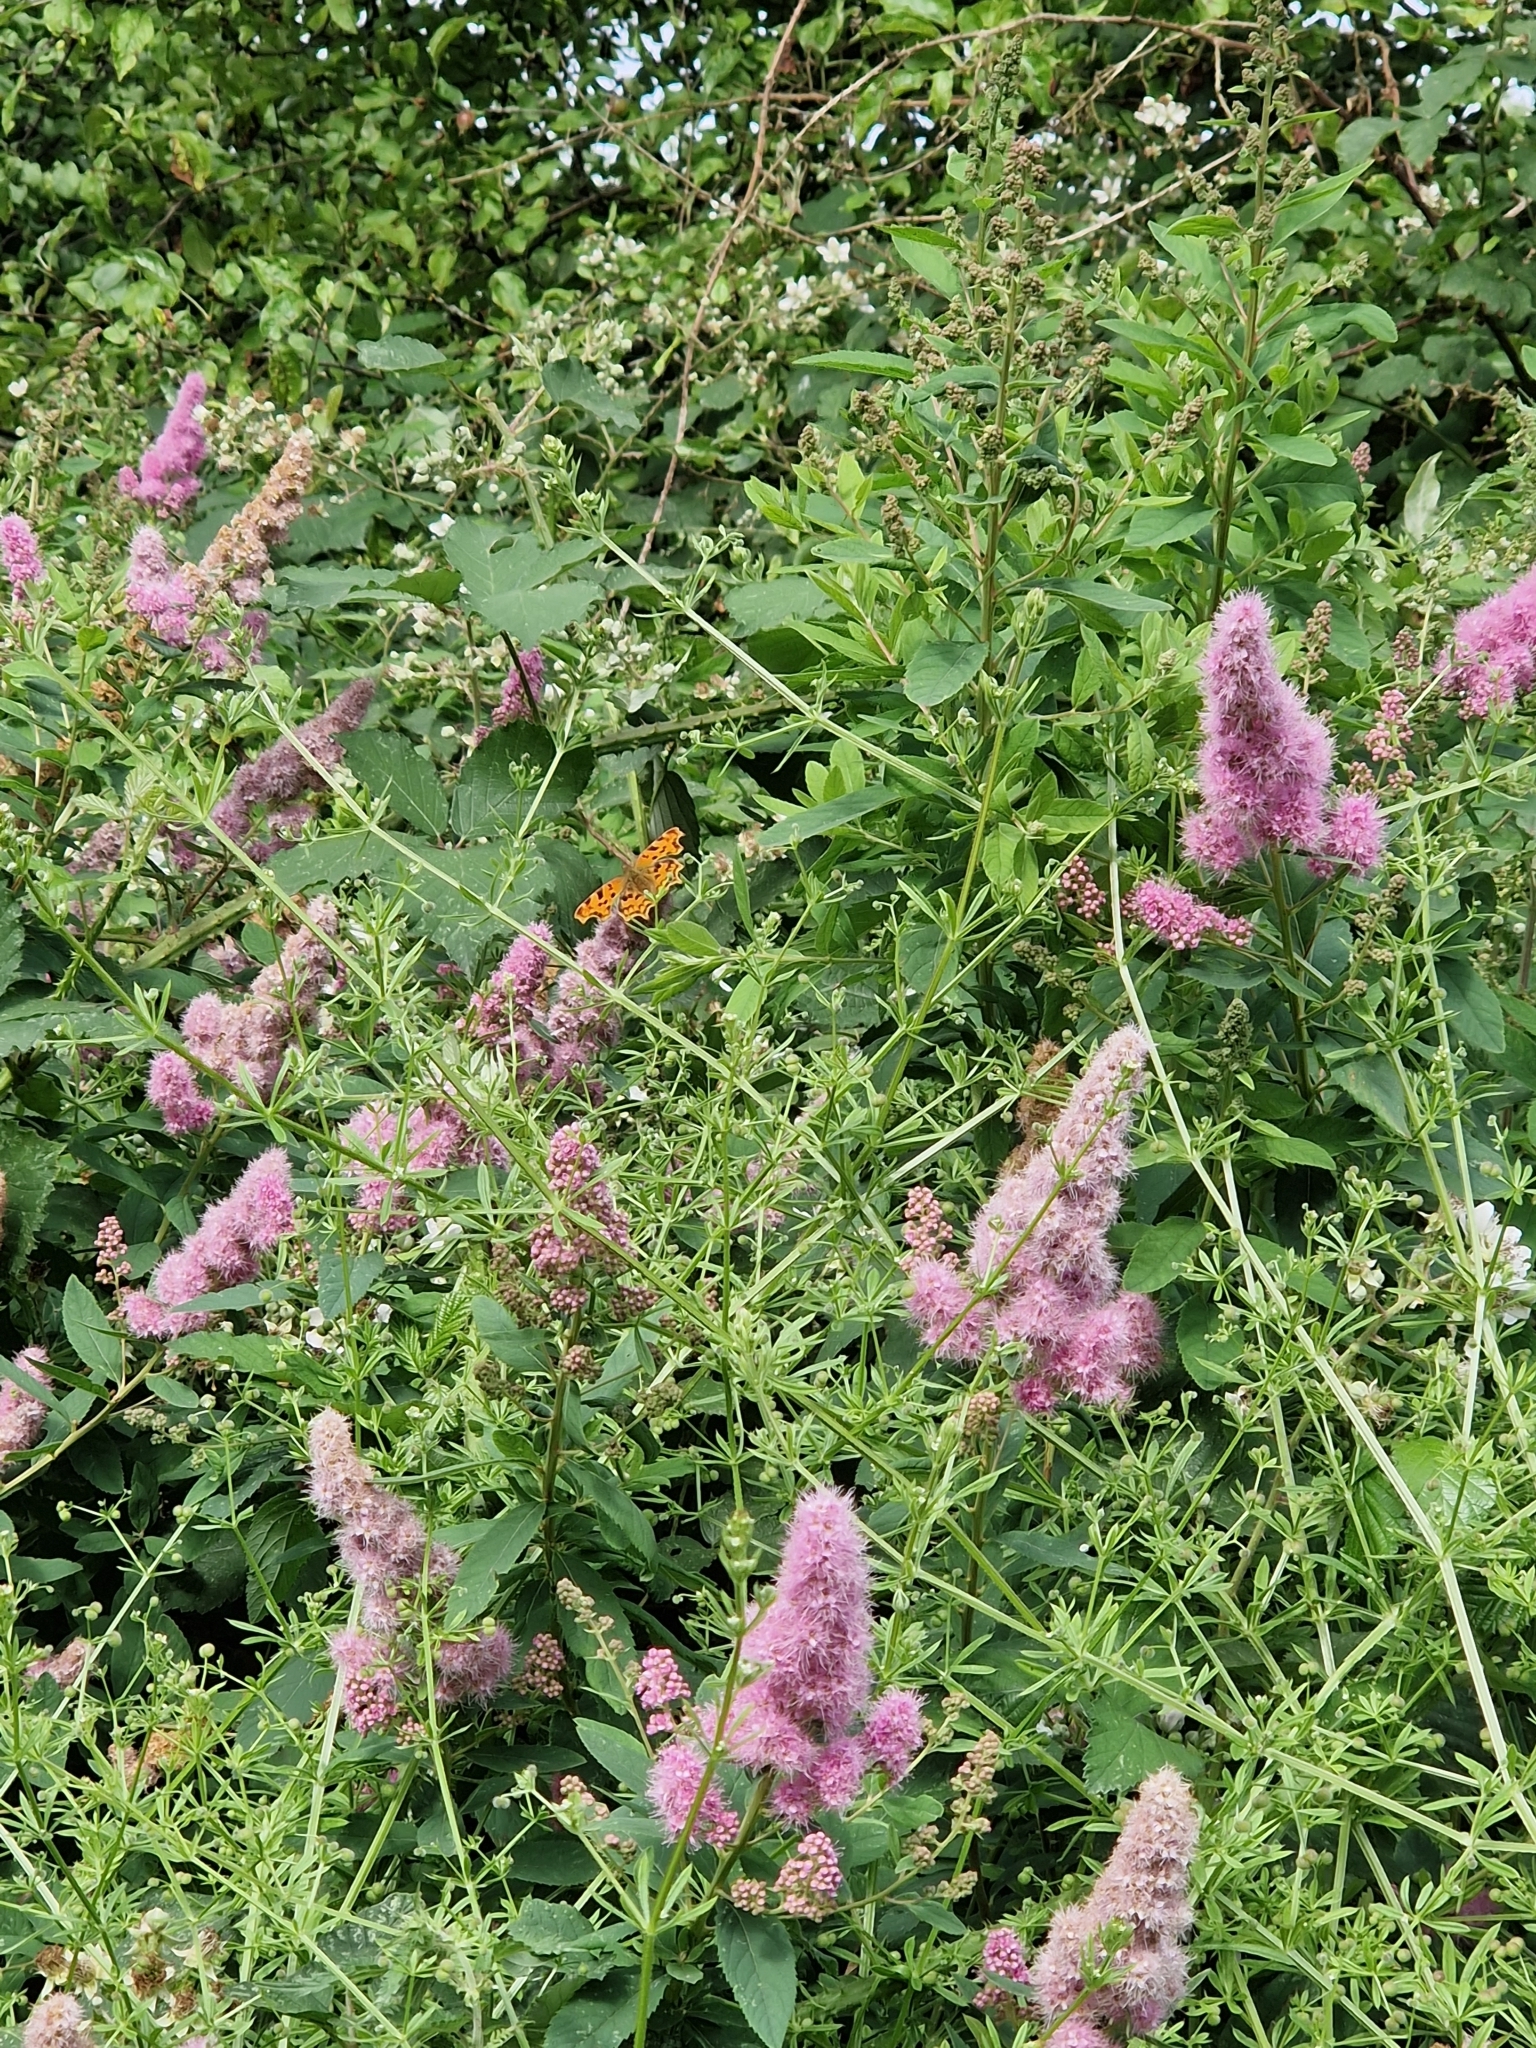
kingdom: Animalia
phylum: Arthropoda
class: Insecta
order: Lepidoptera
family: Nymphalidae
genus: Polygonia
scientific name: Polygonia c-album
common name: Comma
